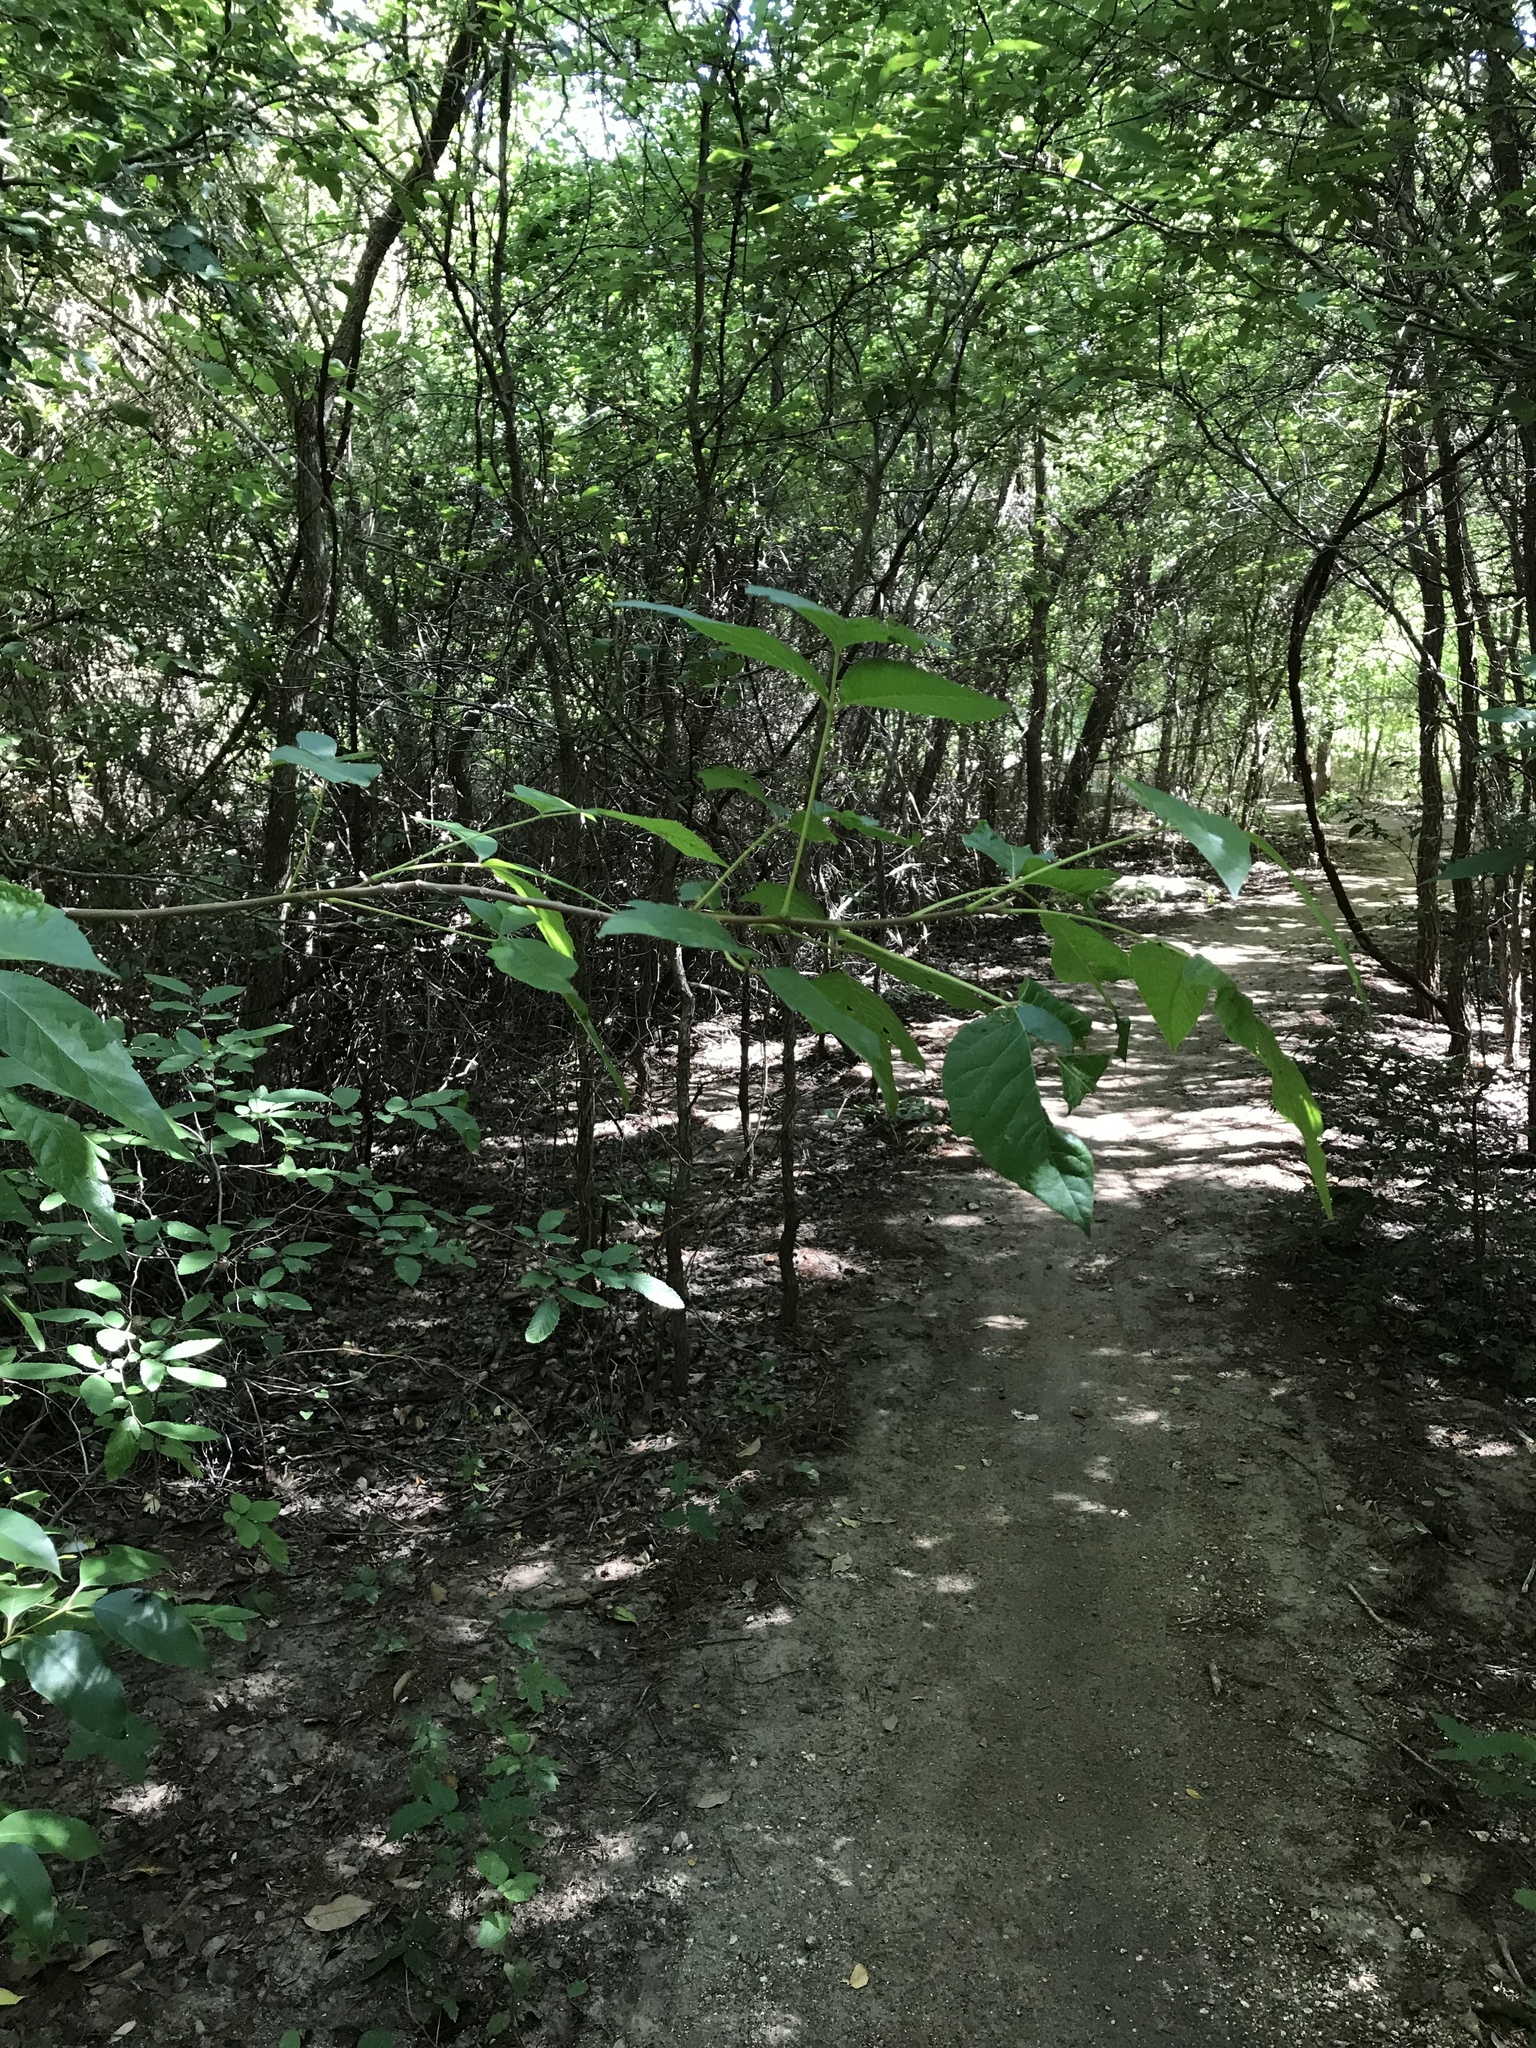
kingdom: Plantae
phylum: Tracheophyta
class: Magnoliopsida
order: Sapindales
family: Anacardiaceae
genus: Toxicodendron
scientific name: Toxicodendron radicans
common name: Poison ivy
